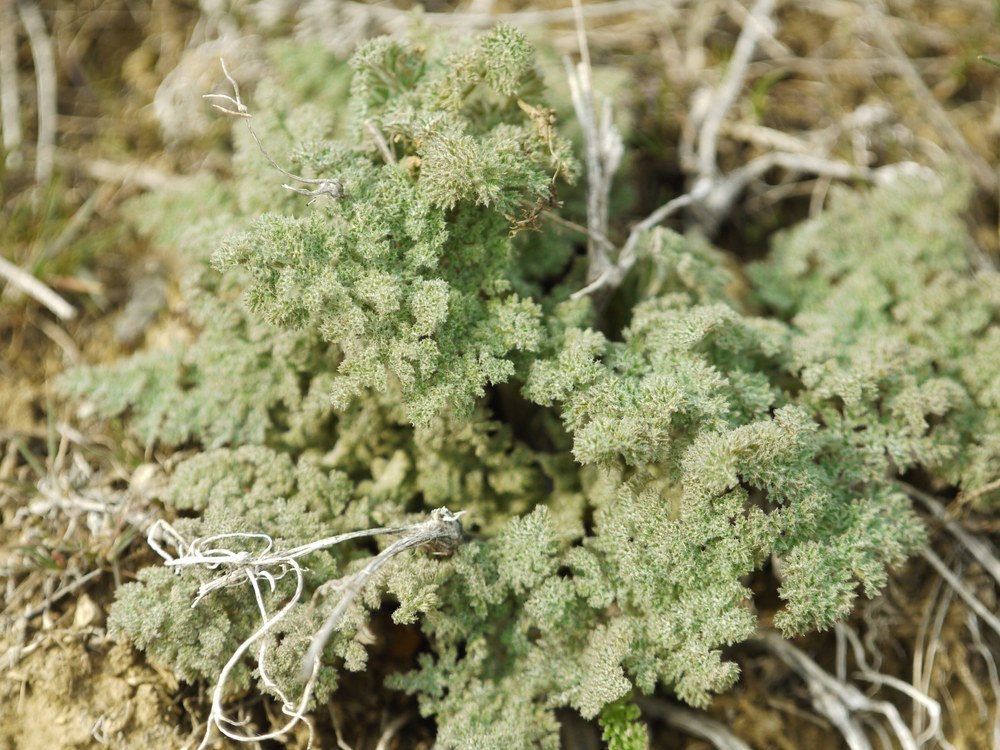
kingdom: Plantae
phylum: Tracheophyta
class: Magnoliopsida
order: Apiales
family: Apiaceae
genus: Ferula
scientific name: Ferula caspica
